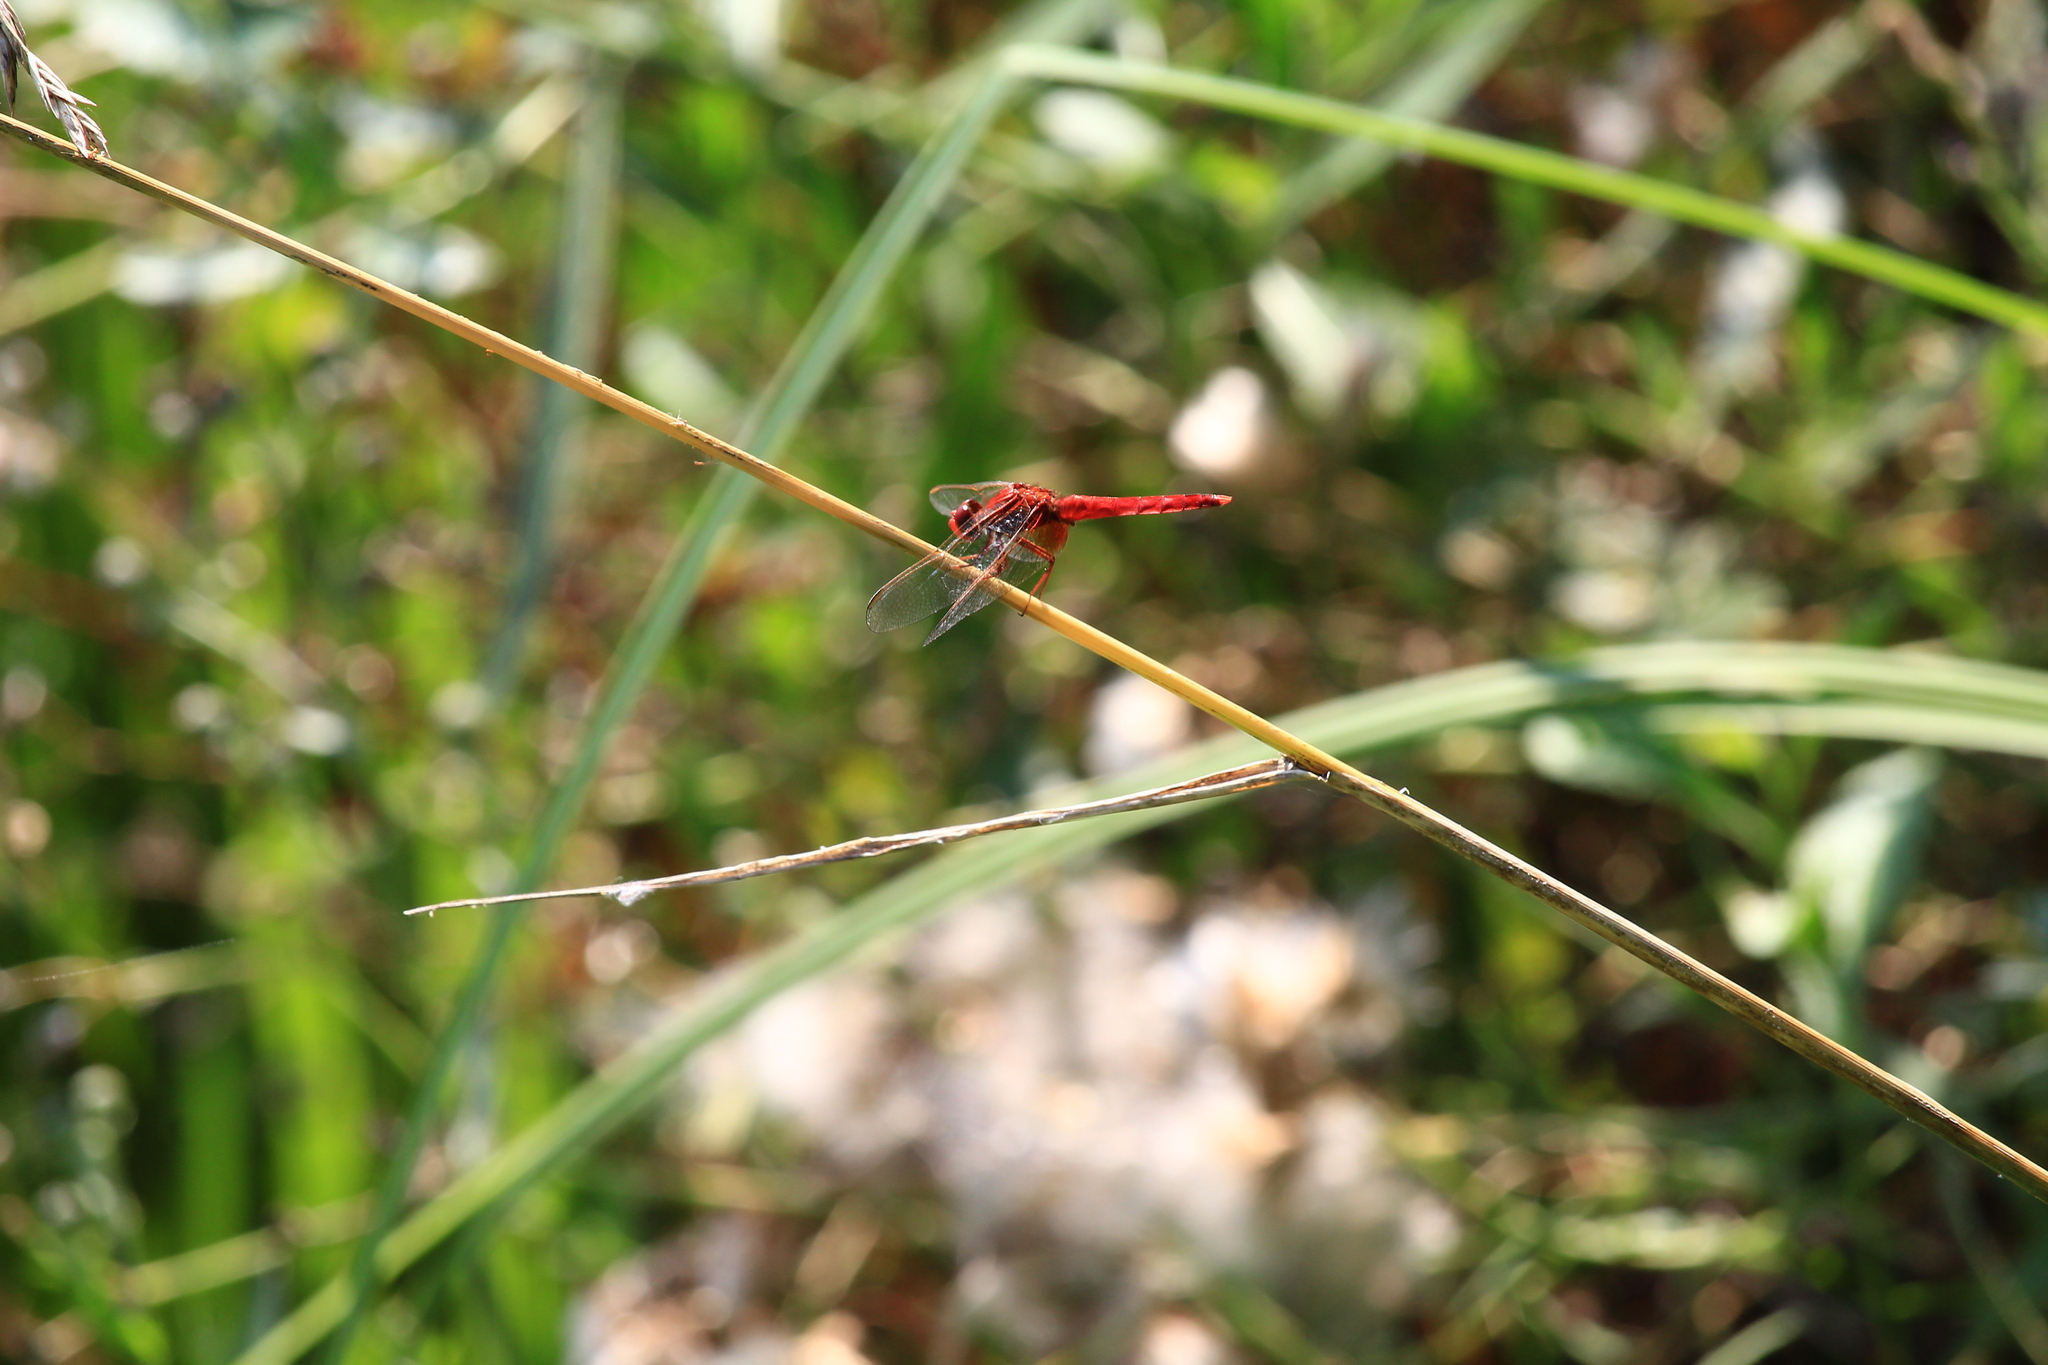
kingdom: Animalia
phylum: Arthropoda
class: Insecta
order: Odonata
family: Libellulidae
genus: Crocothemis
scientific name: Crocothemis erythraea
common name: Scarlet dragonfly
